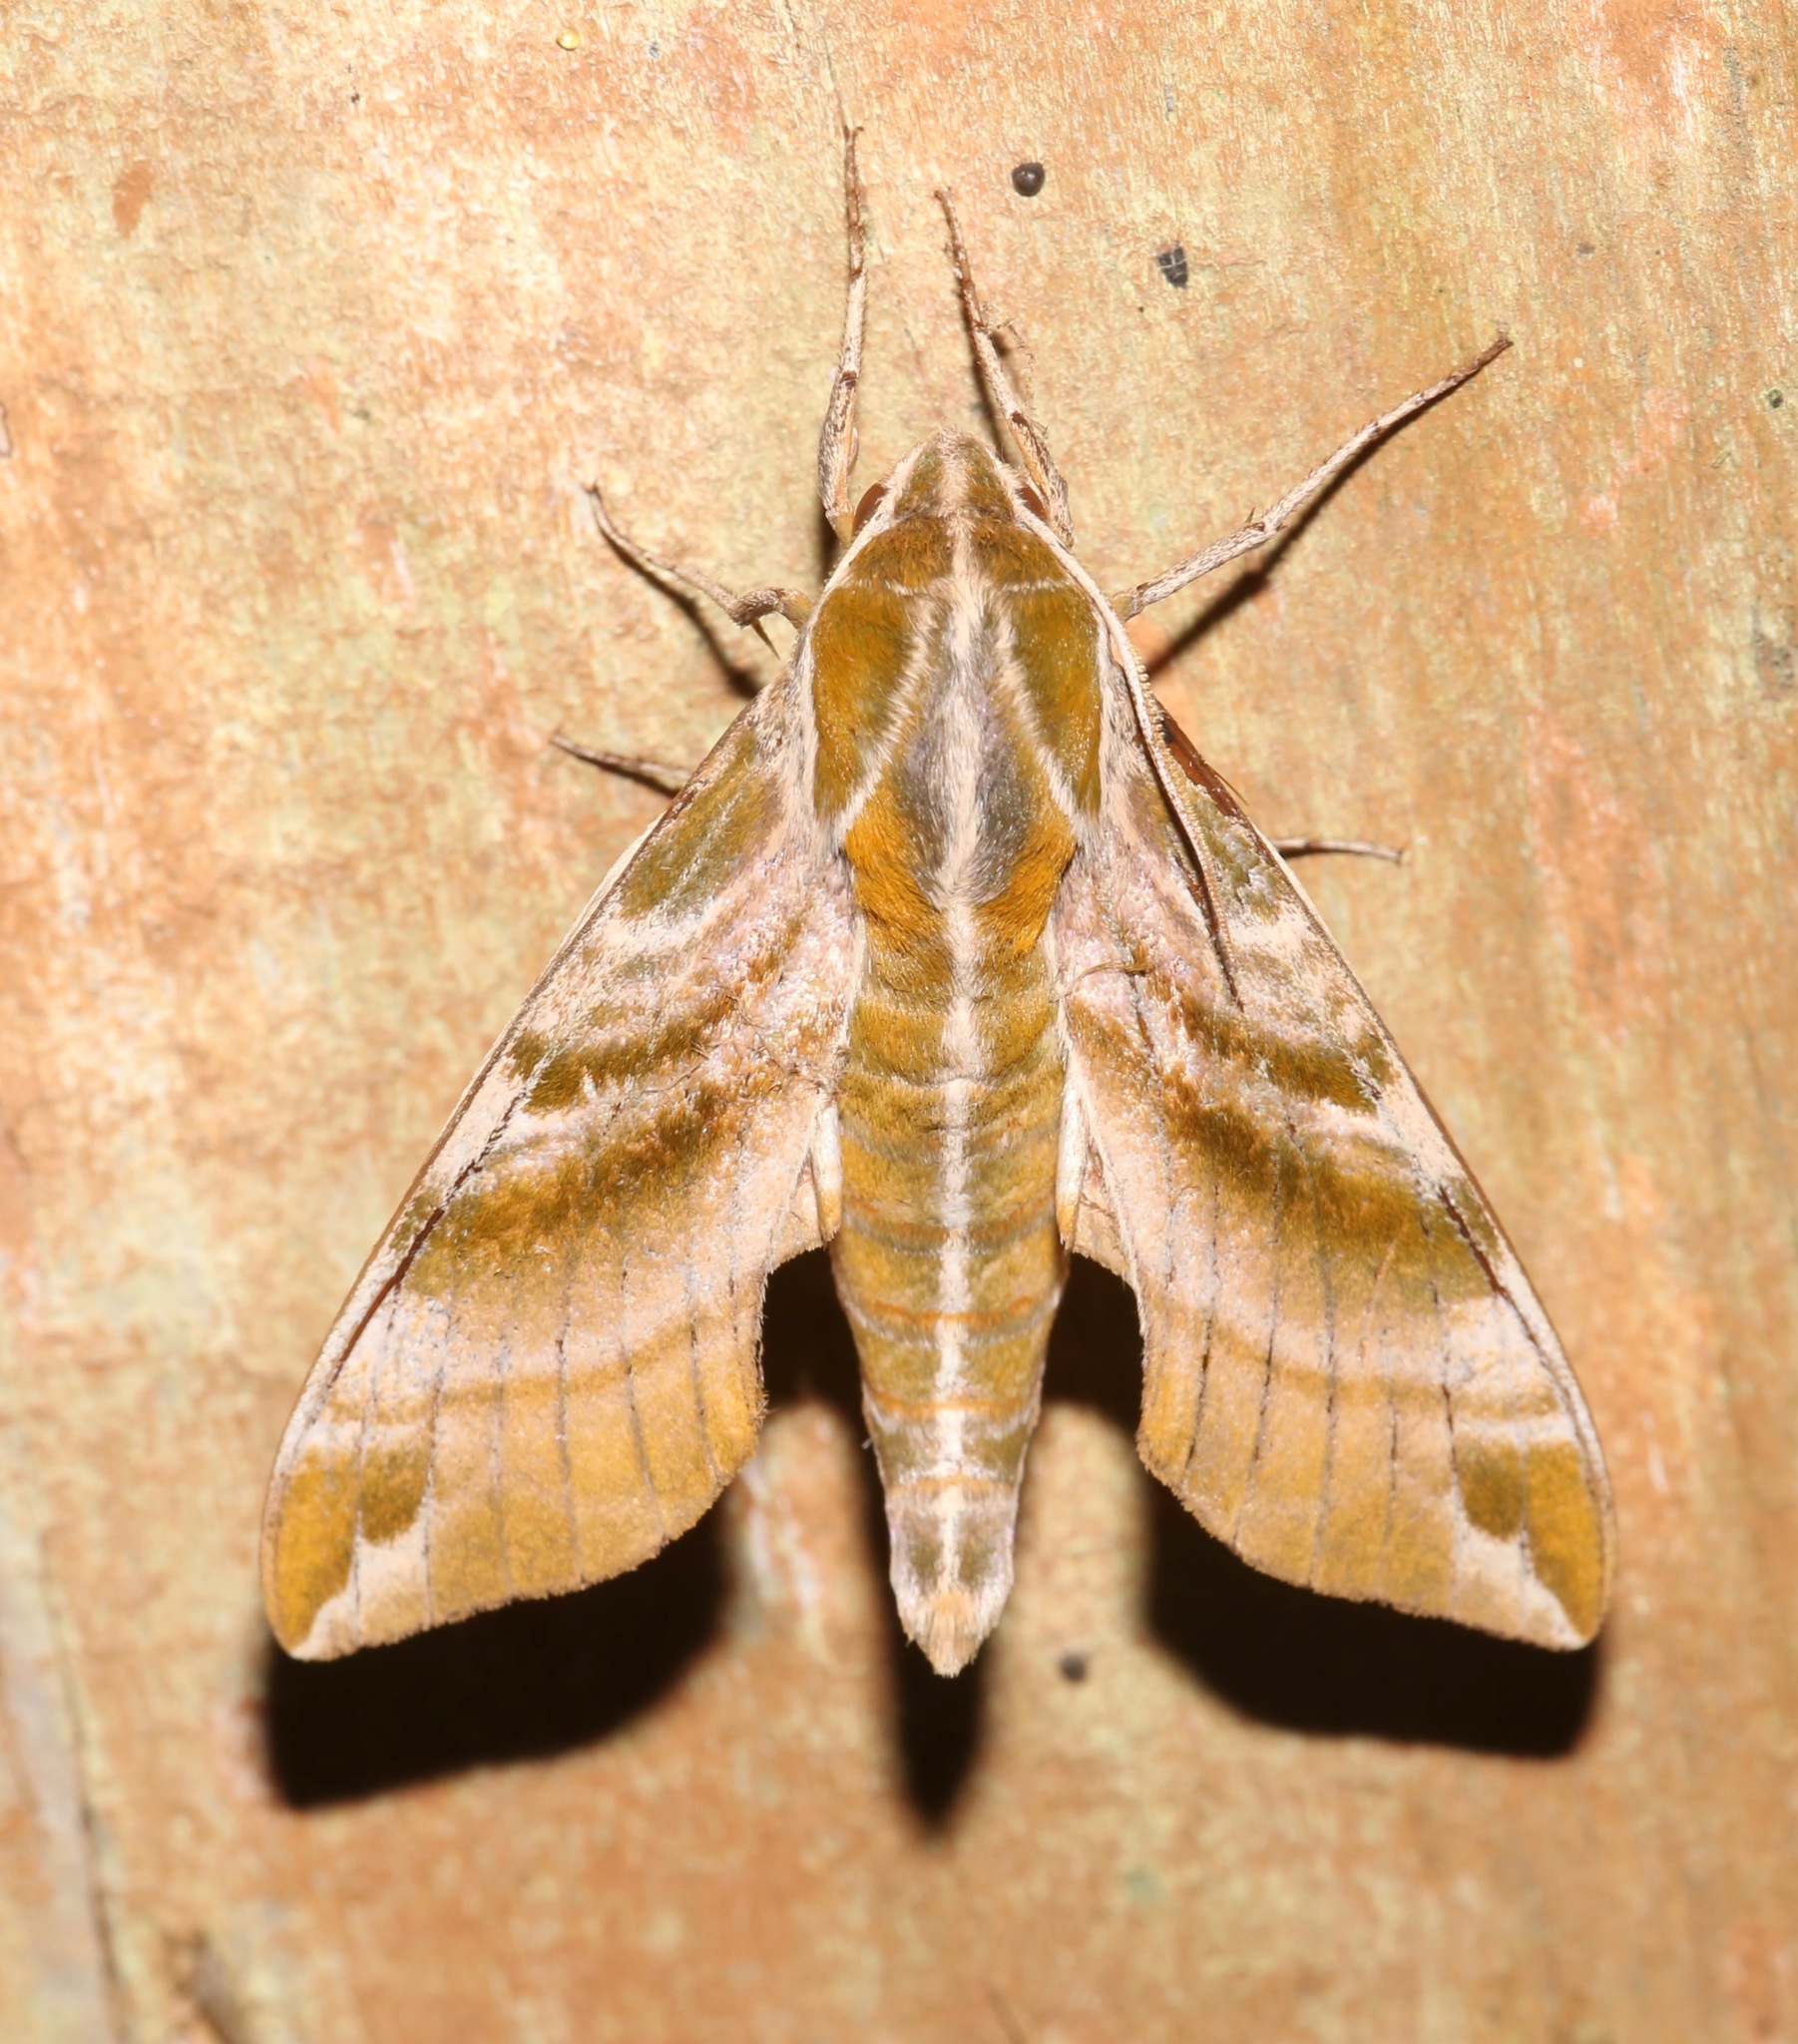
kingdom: Animalia
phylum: Arthropoda
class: Insecta
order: Lepidoptera
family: Sphingidae
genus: Darapsa
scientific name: Darapsa versicolor
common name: Hydrangea sphinx
